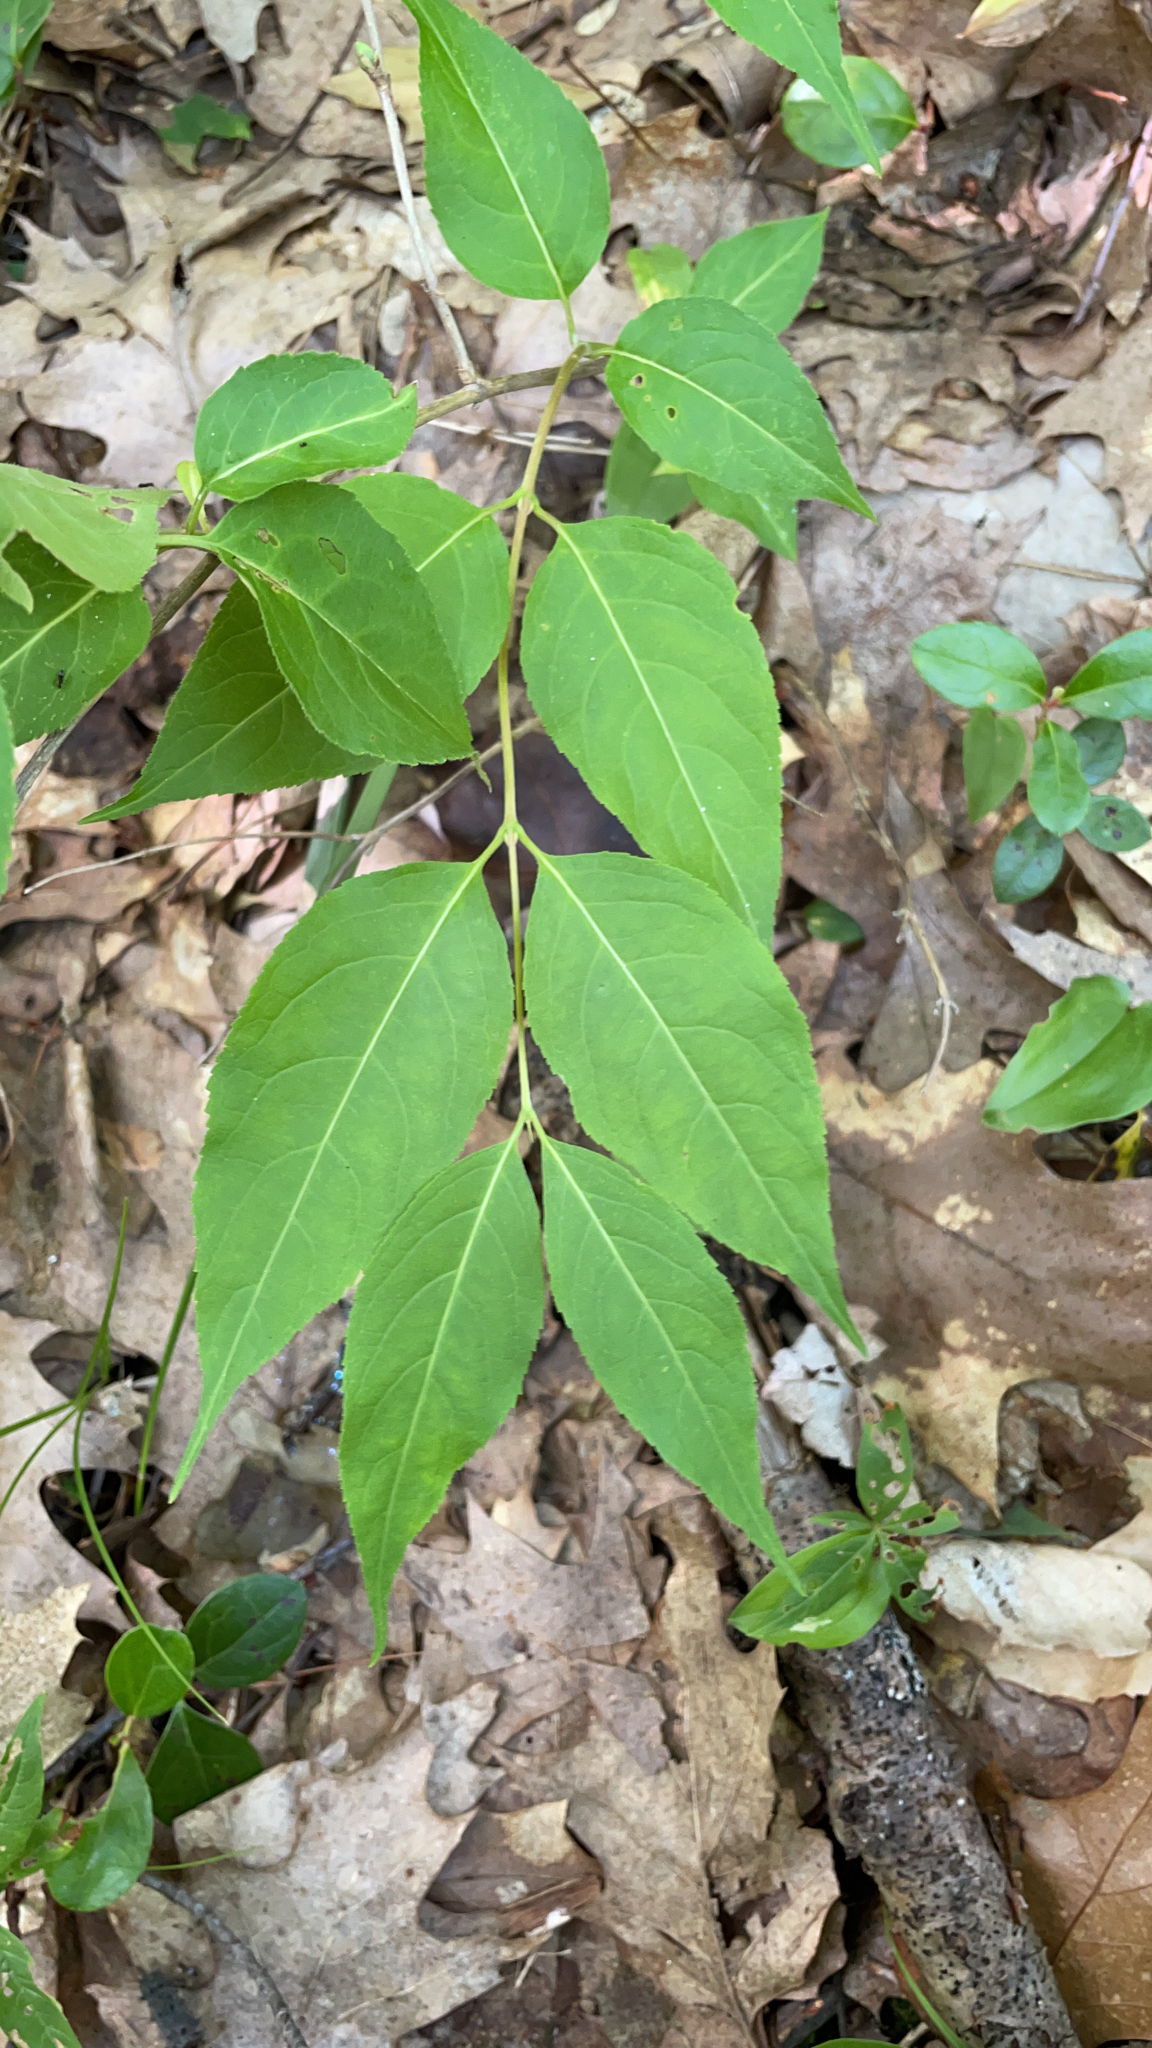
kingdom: Plantae
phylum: Tracheophyta
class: Magnoliopsida
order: Dipsacales
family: Caprifoliaceae
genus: Diervilla
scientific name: Diervilla lonicera
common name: Bush-honeysuckle
